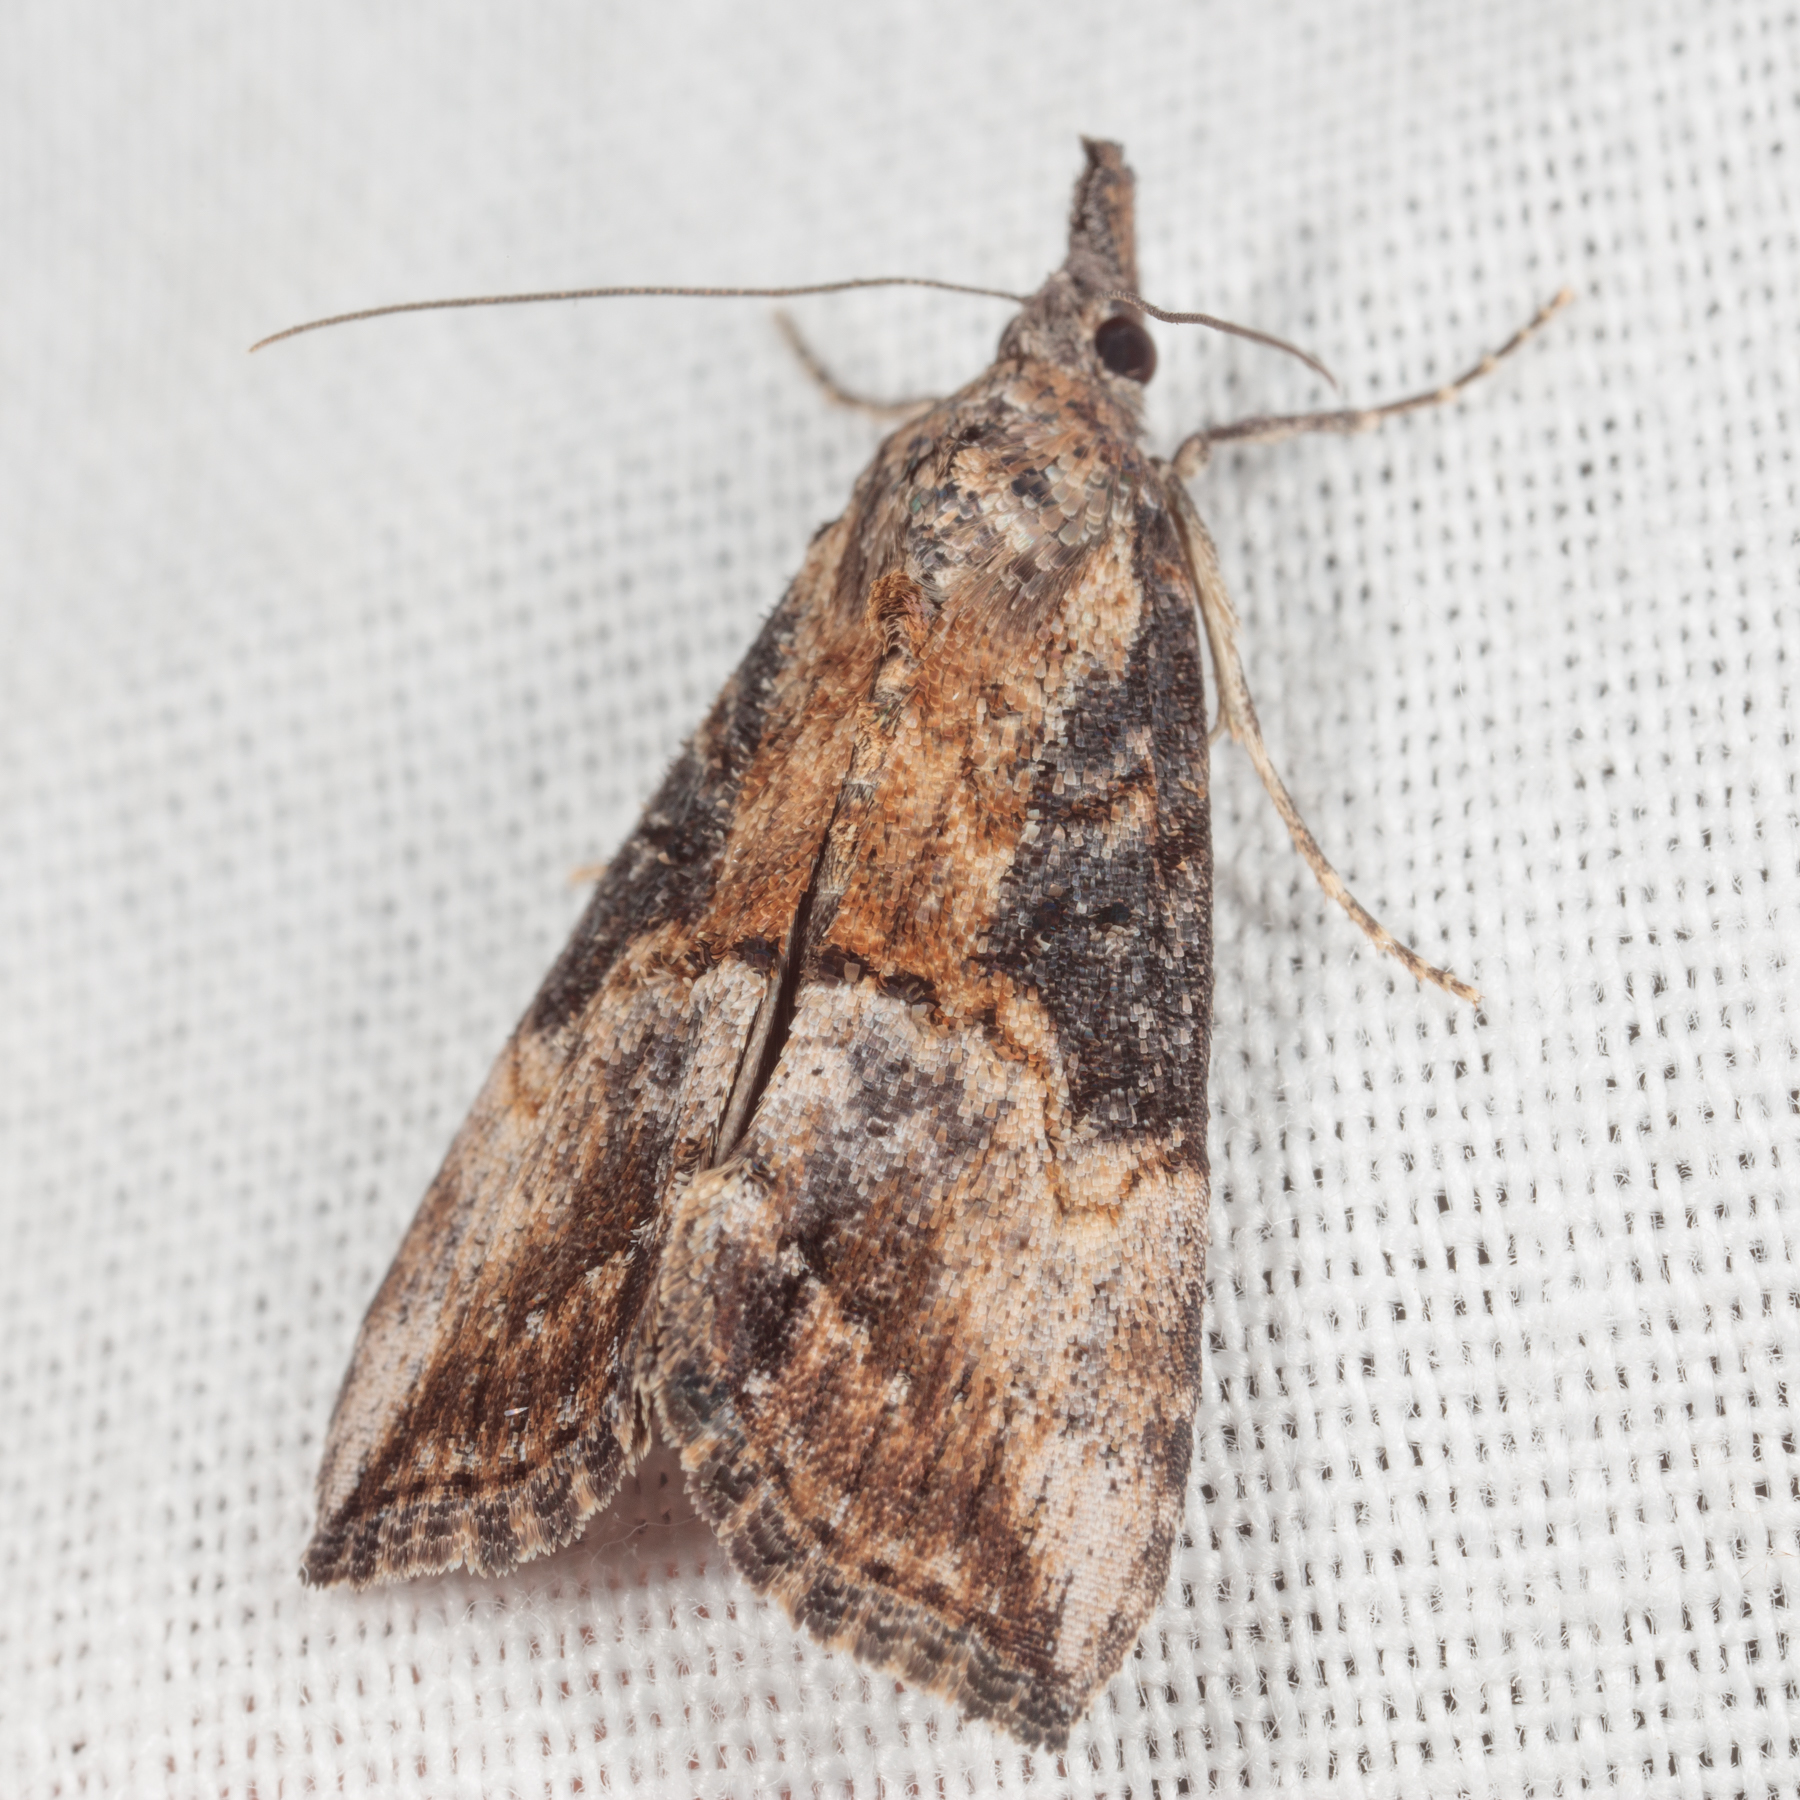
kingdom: Animalia
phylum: Arthropoda
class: Insecta
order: Lepidoptera
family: Erebidae
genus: Hypena
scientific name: Hypena scabra
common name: Green cloverworm
